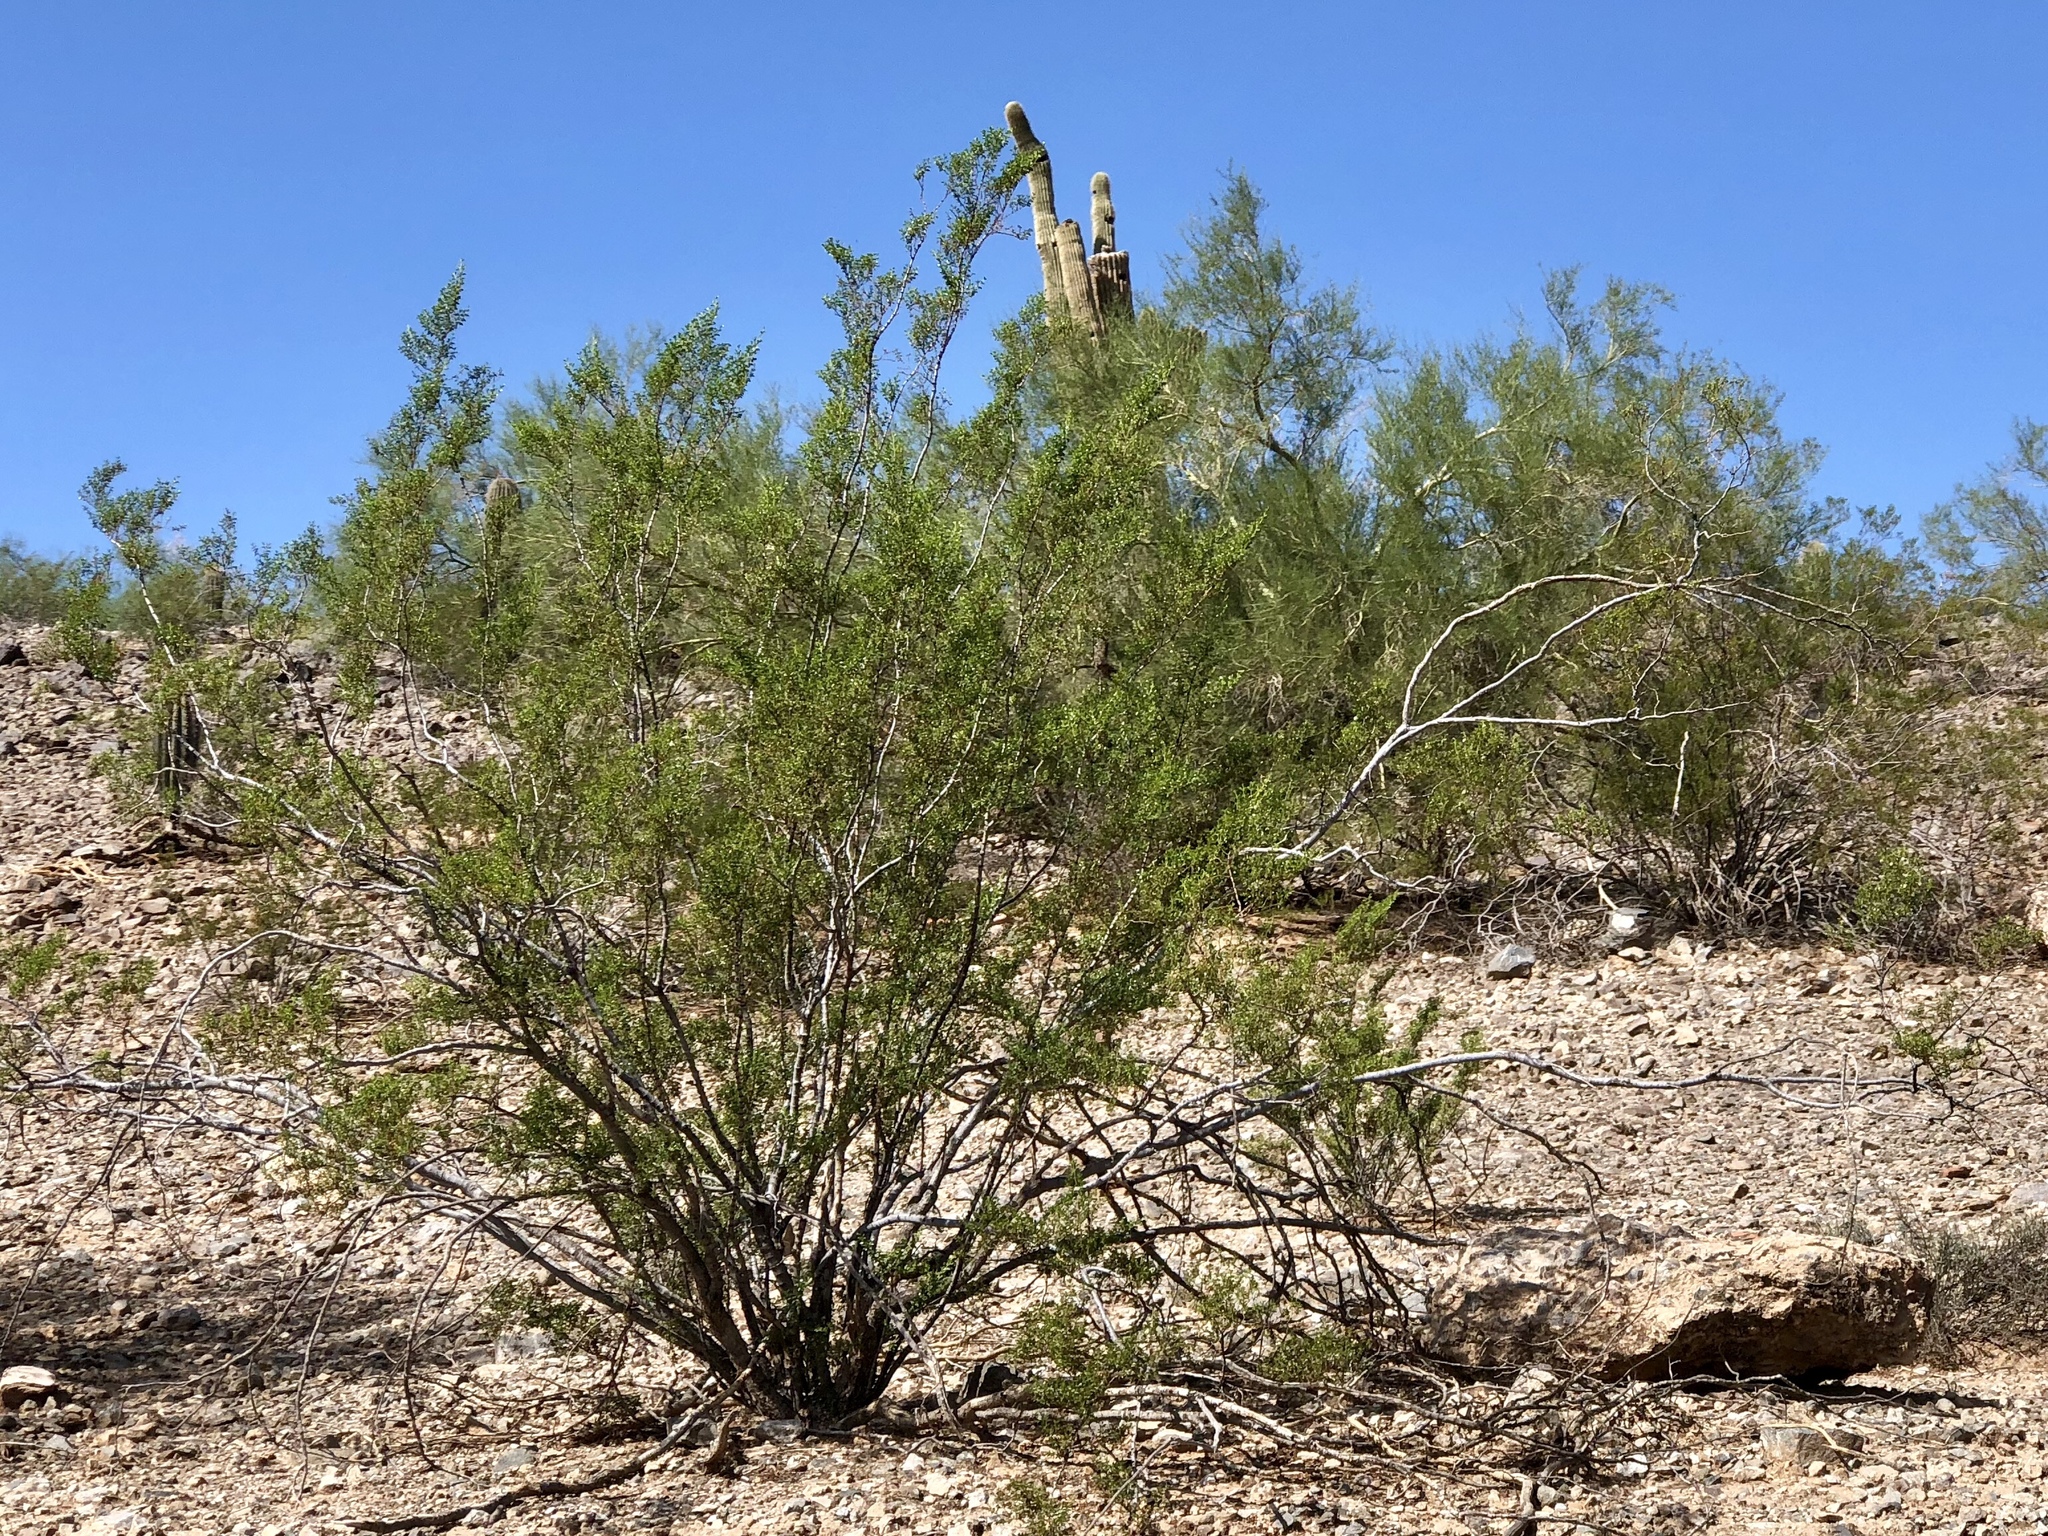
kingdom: Plantae
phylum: Tracheophyta
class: Magnoliopsida
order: Zygophyllales
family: Zygophyllaceae
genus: Larrea
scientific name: Larrea tridentata
